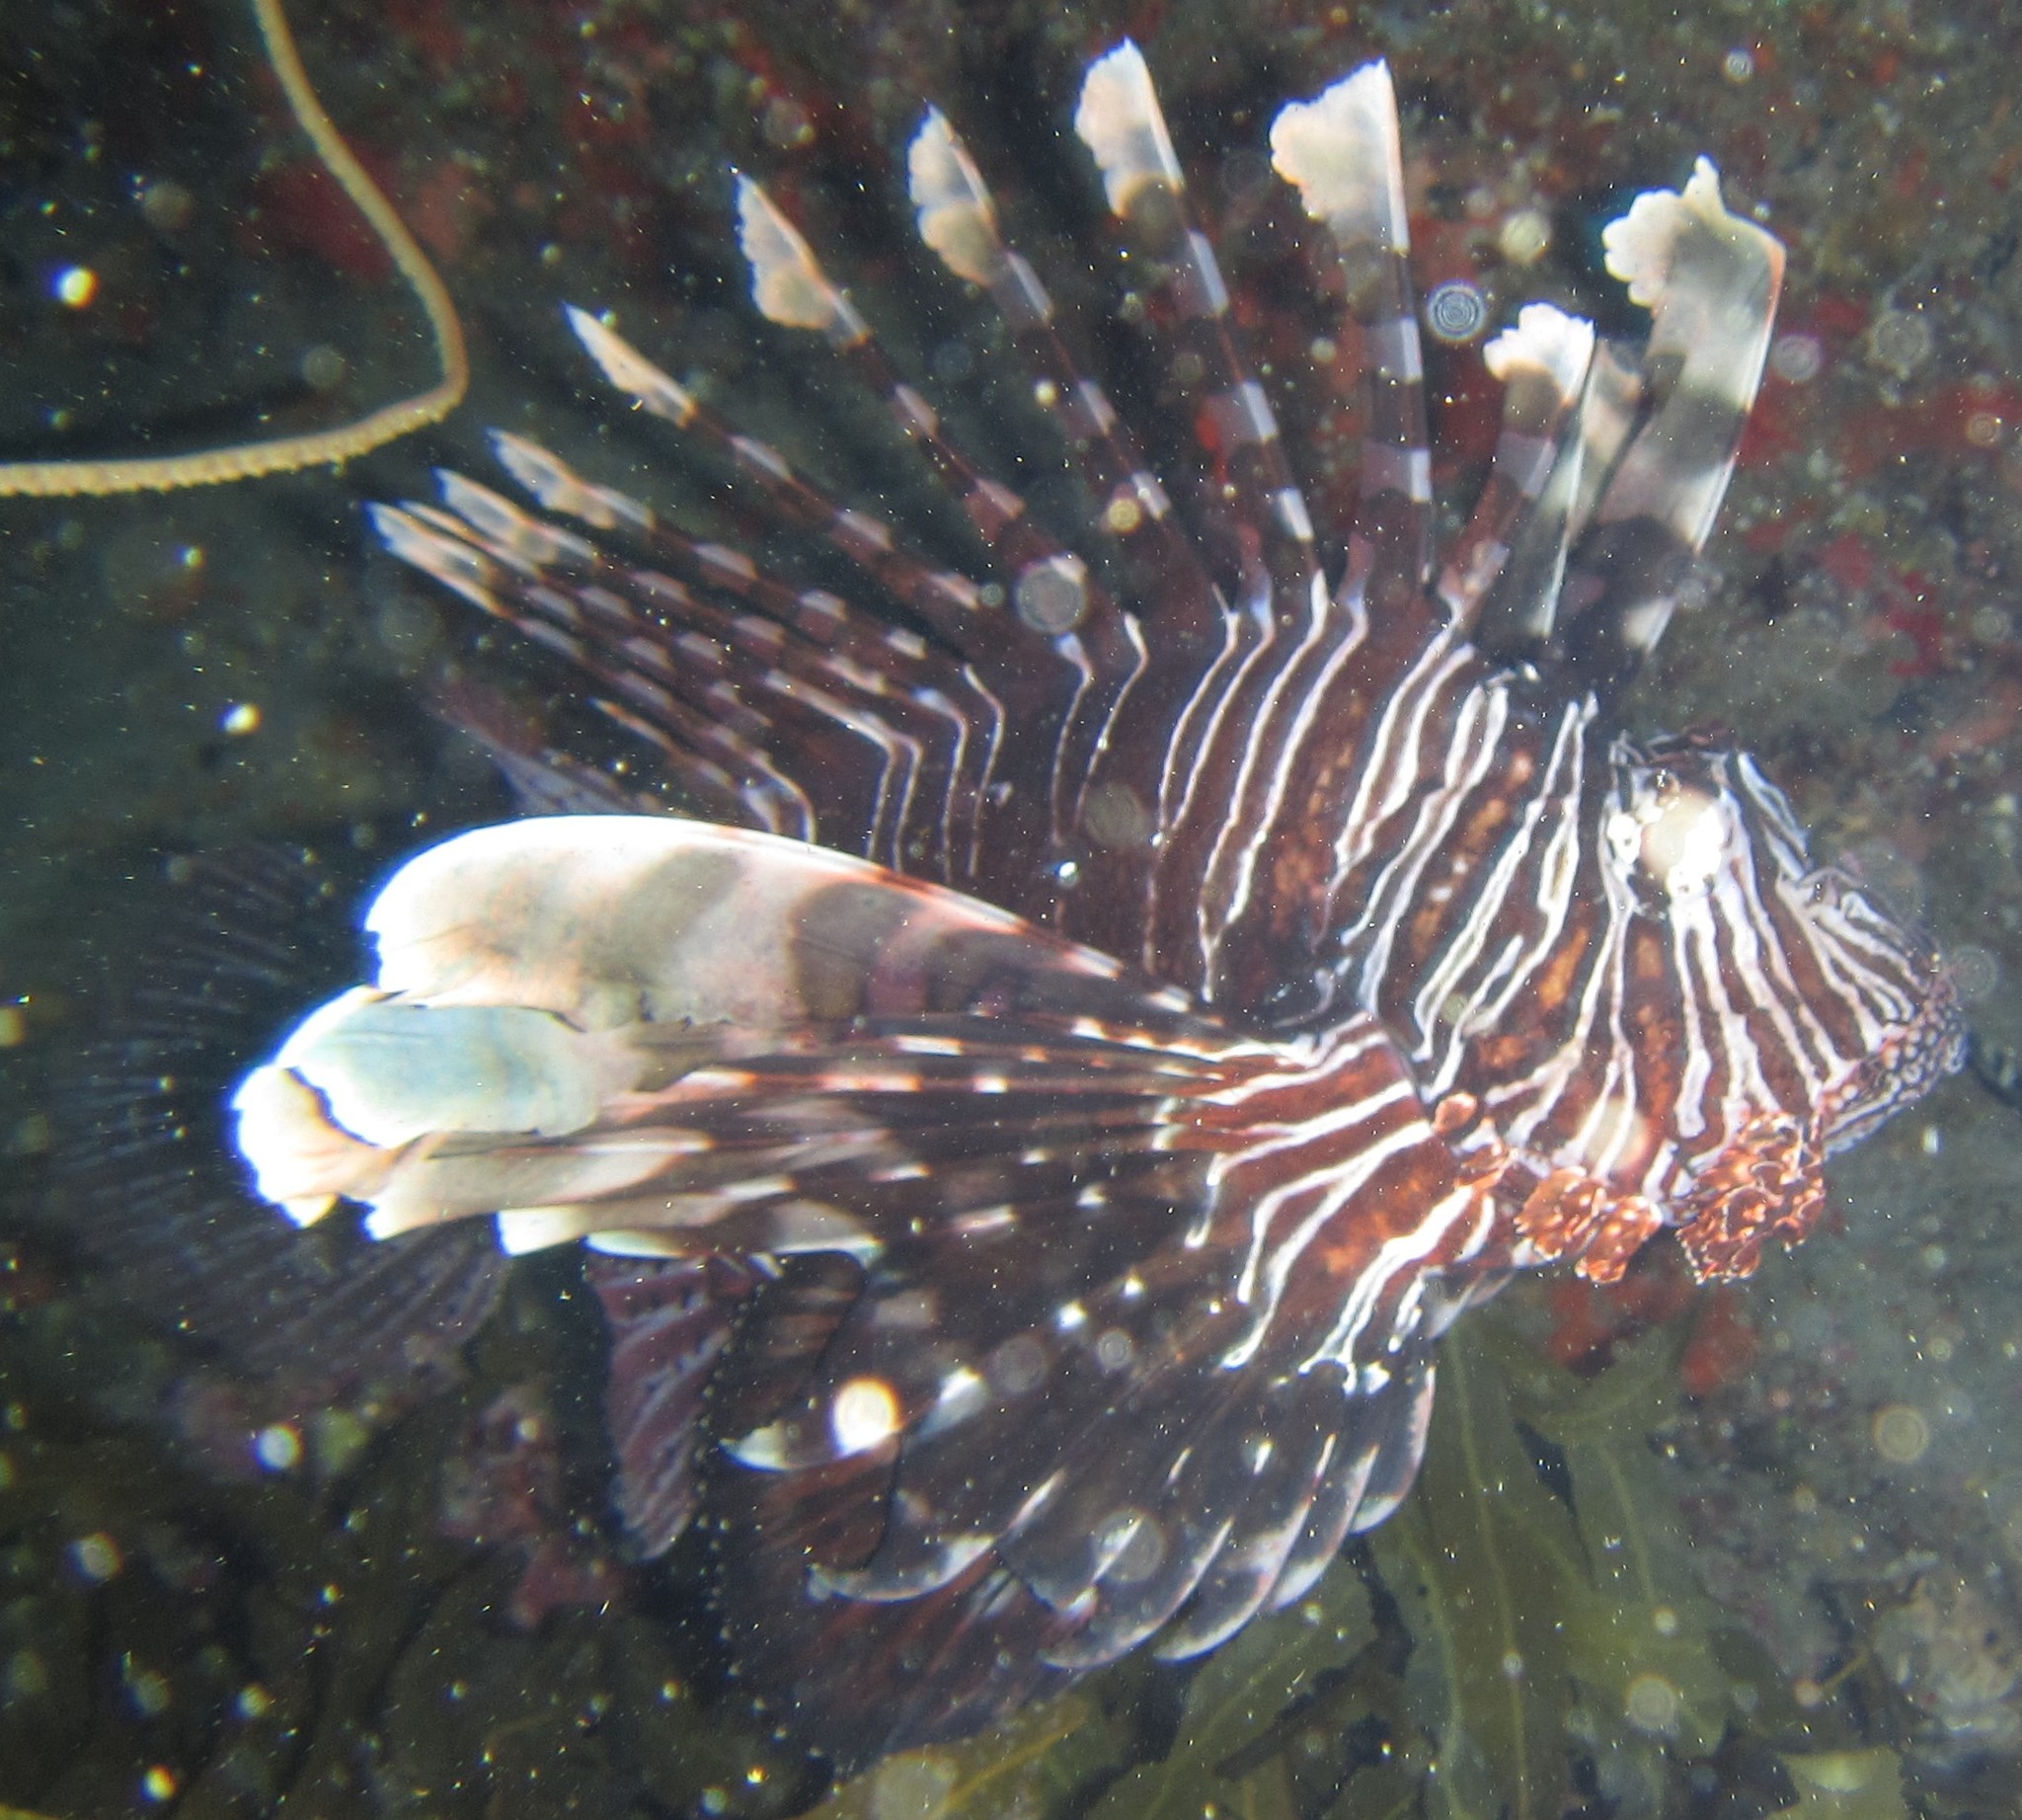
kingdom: Animalia
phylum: Chordata
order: Scorpaeniformes
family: Scorpaenidae
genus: Pterois
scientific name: Pterois miles
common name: Devil firefish
